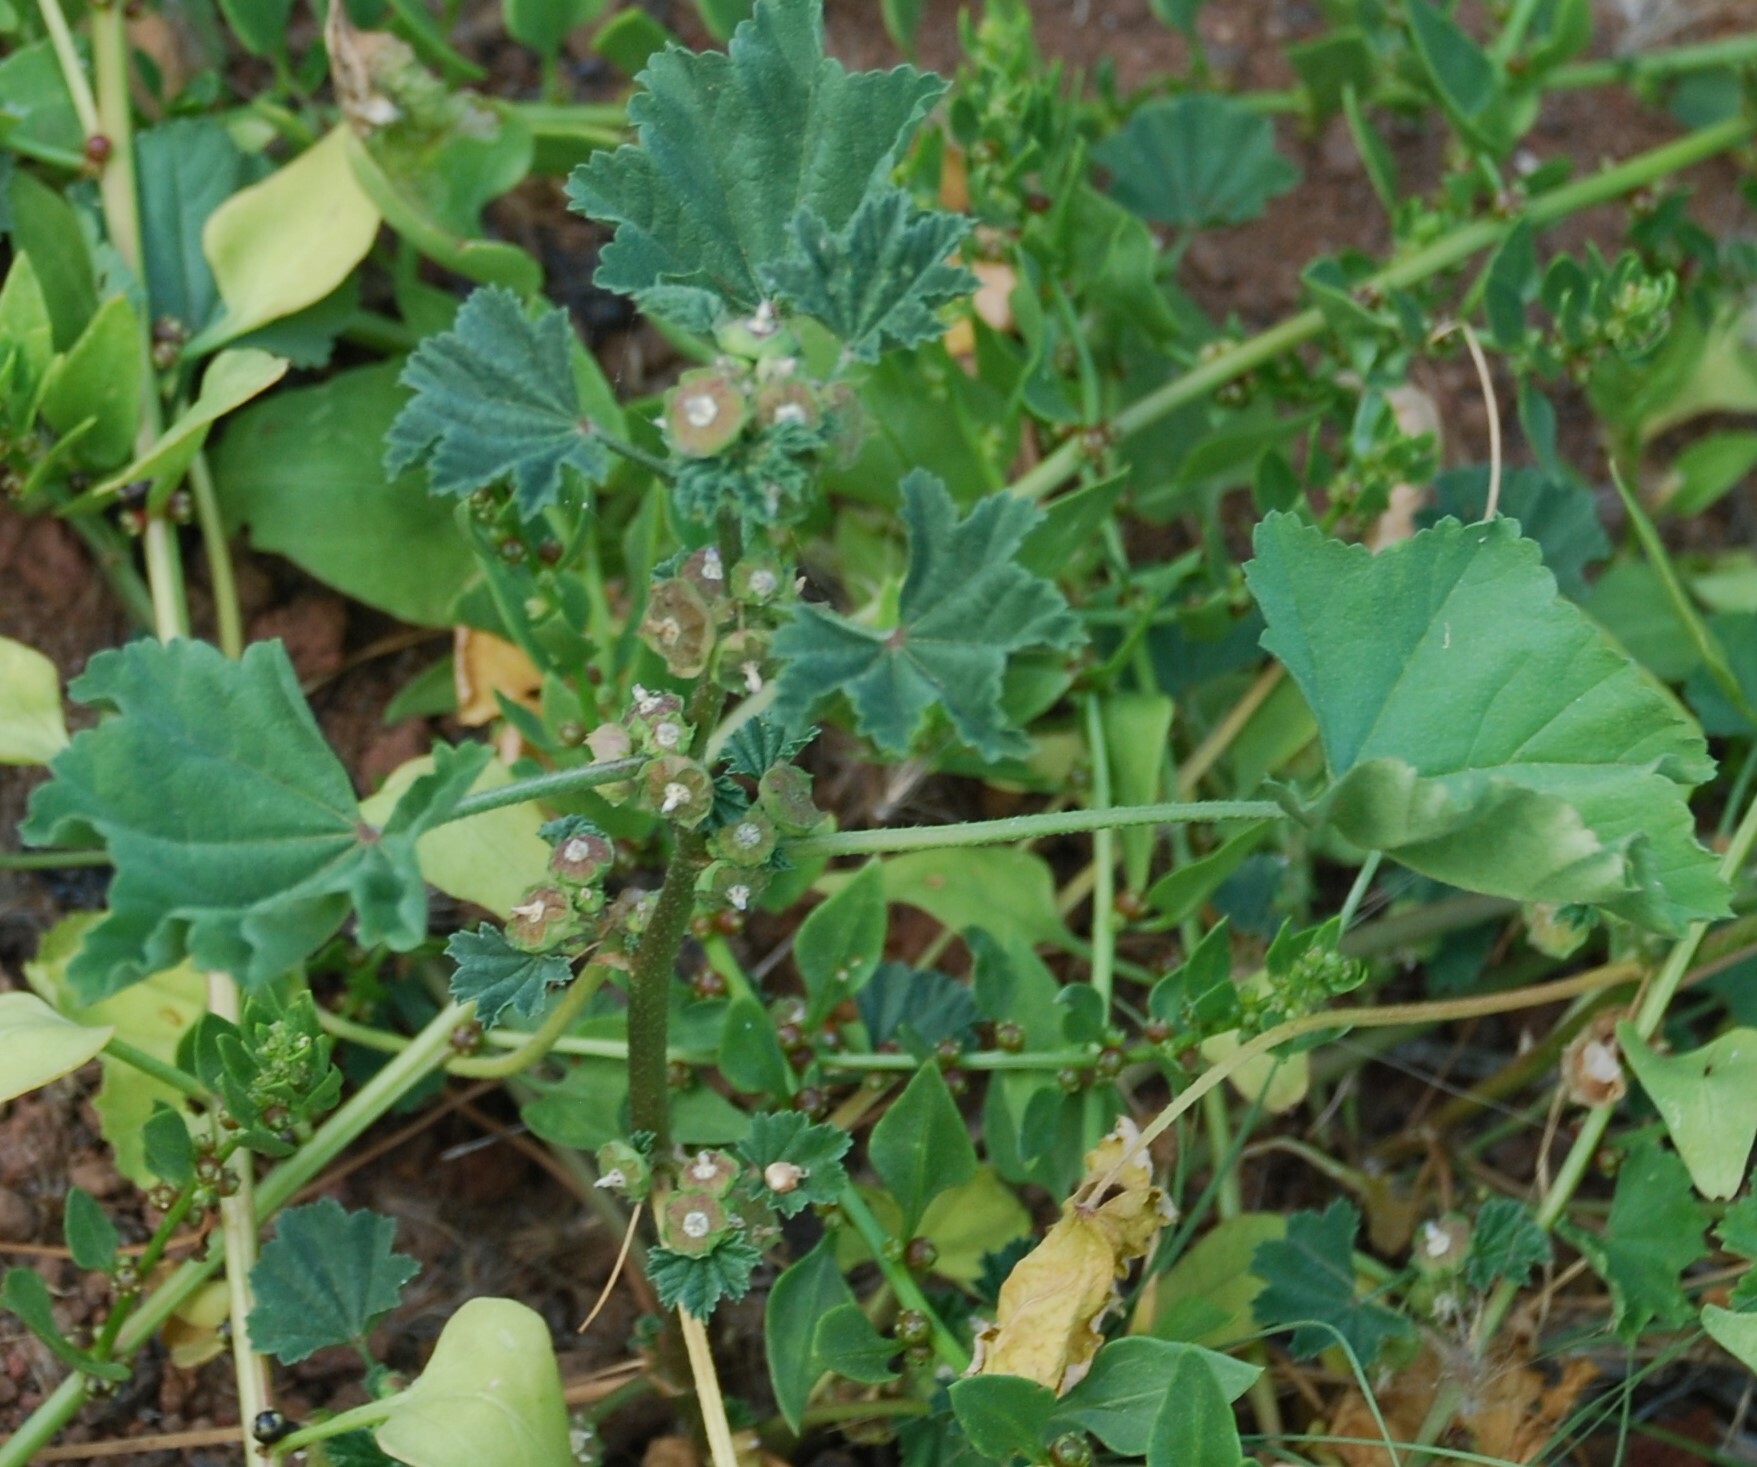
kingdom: Plantae
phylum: Tracheophyta
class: Magnoliopsida
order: Malvales
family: Malvaceae
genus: Malva
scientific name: Malva parviflora
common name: Least mallow
